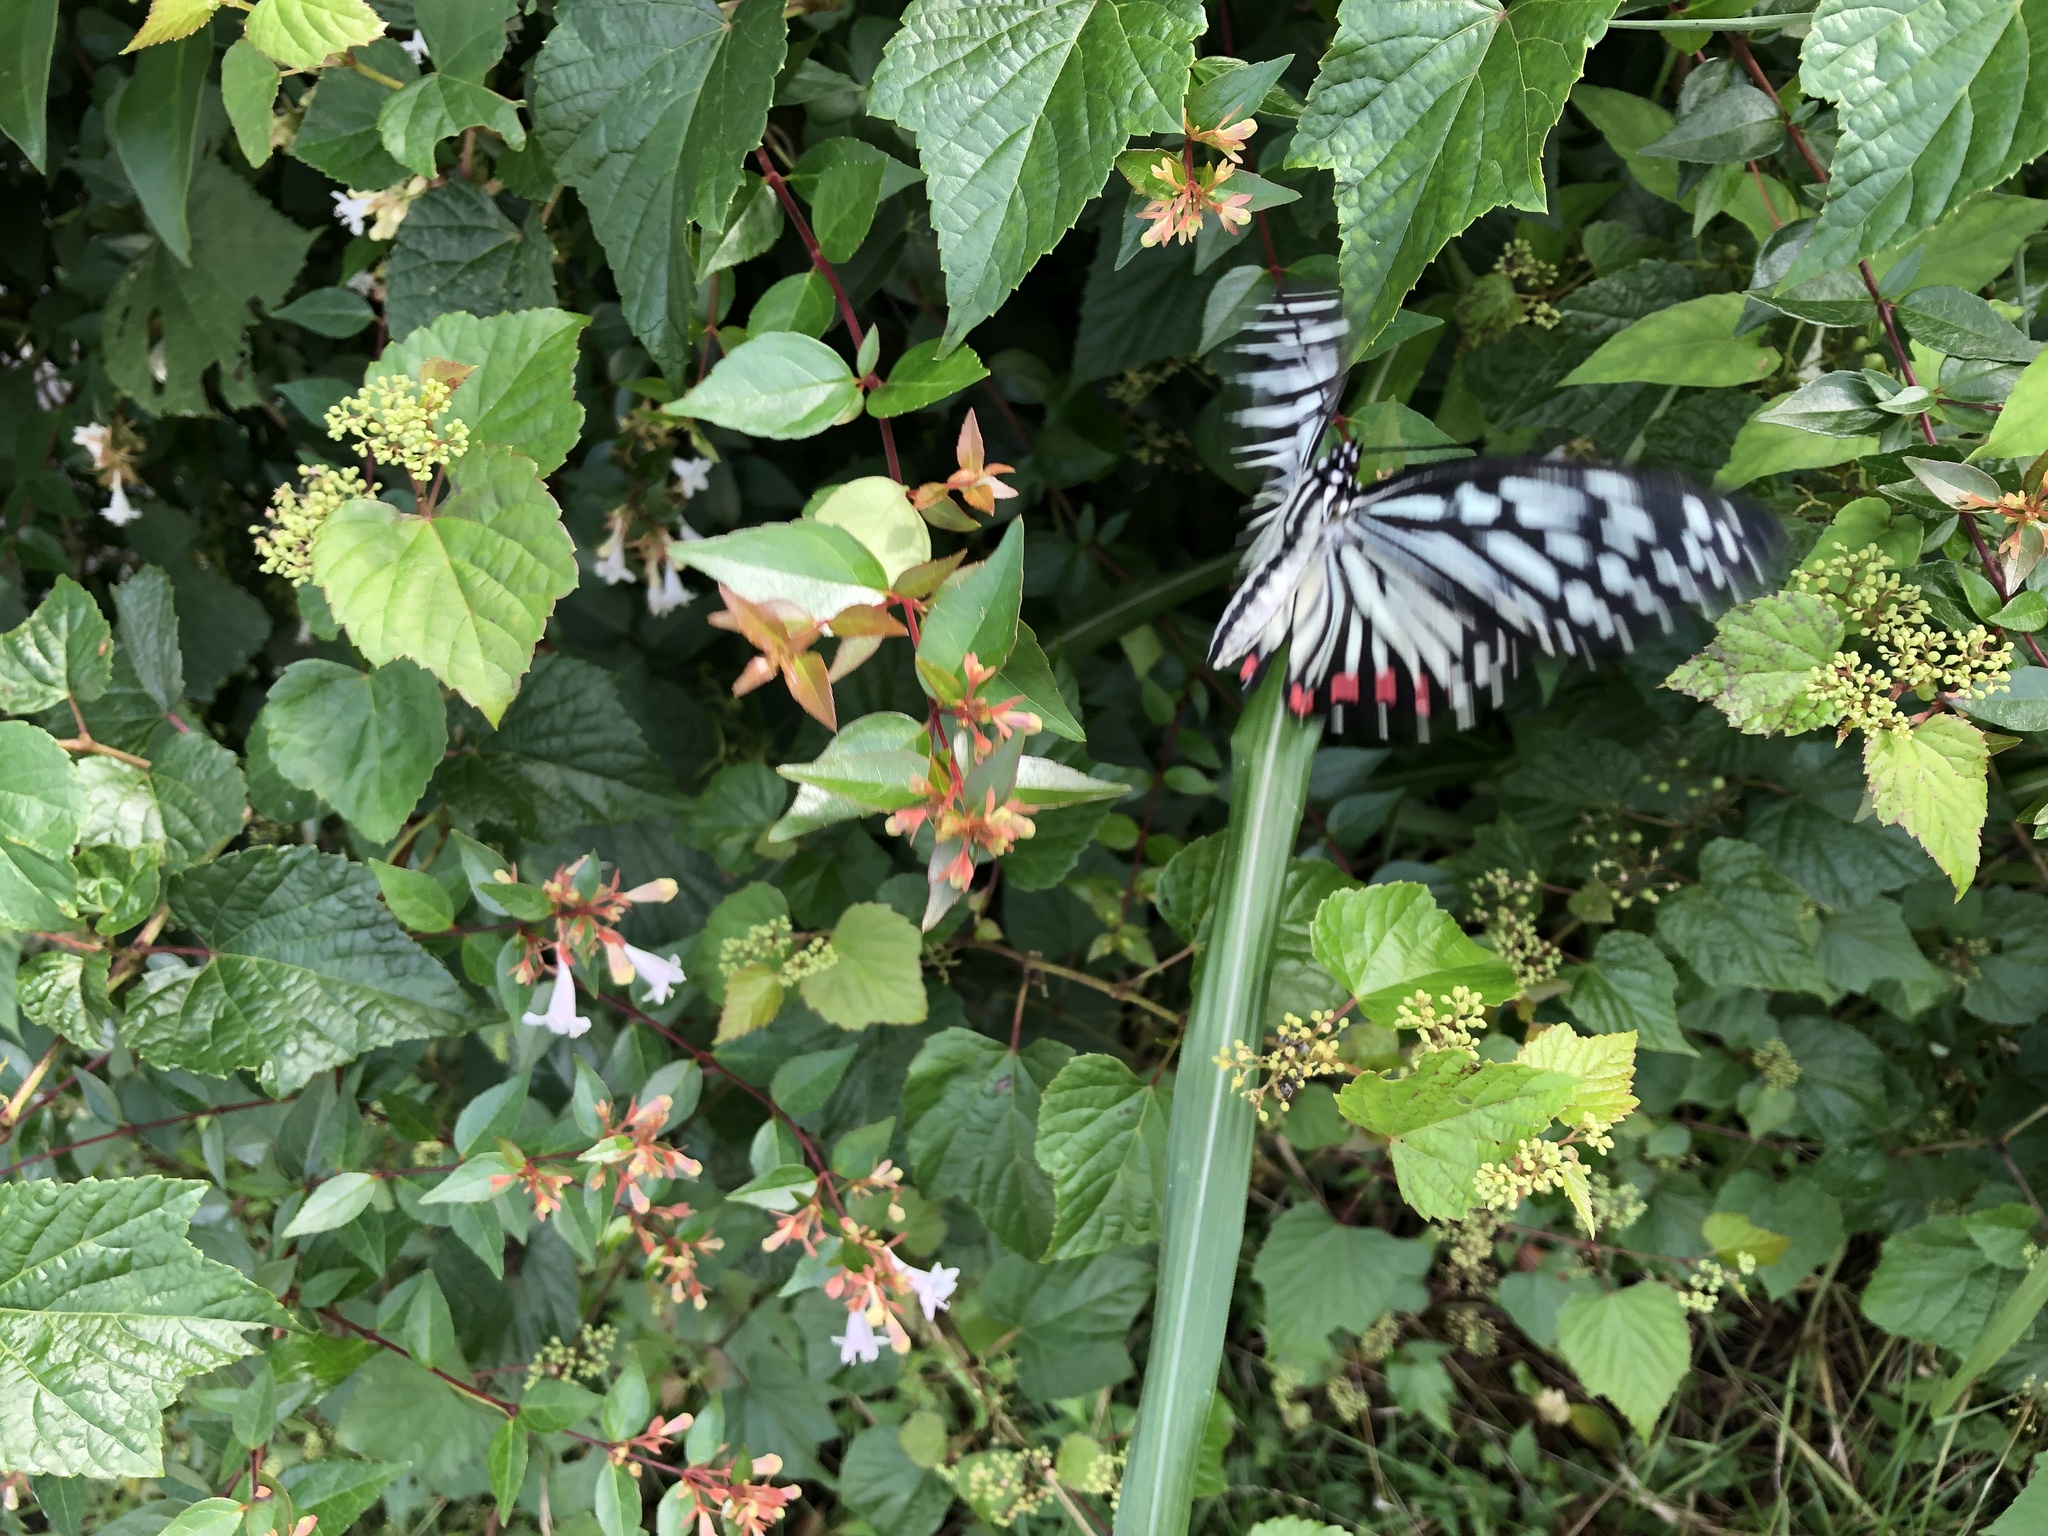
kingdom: Animalia
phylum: Arthropoda
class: Insecta
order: Lepidoptera
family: Nymphalidae
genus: Hestina
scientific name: Hestina assimilis
